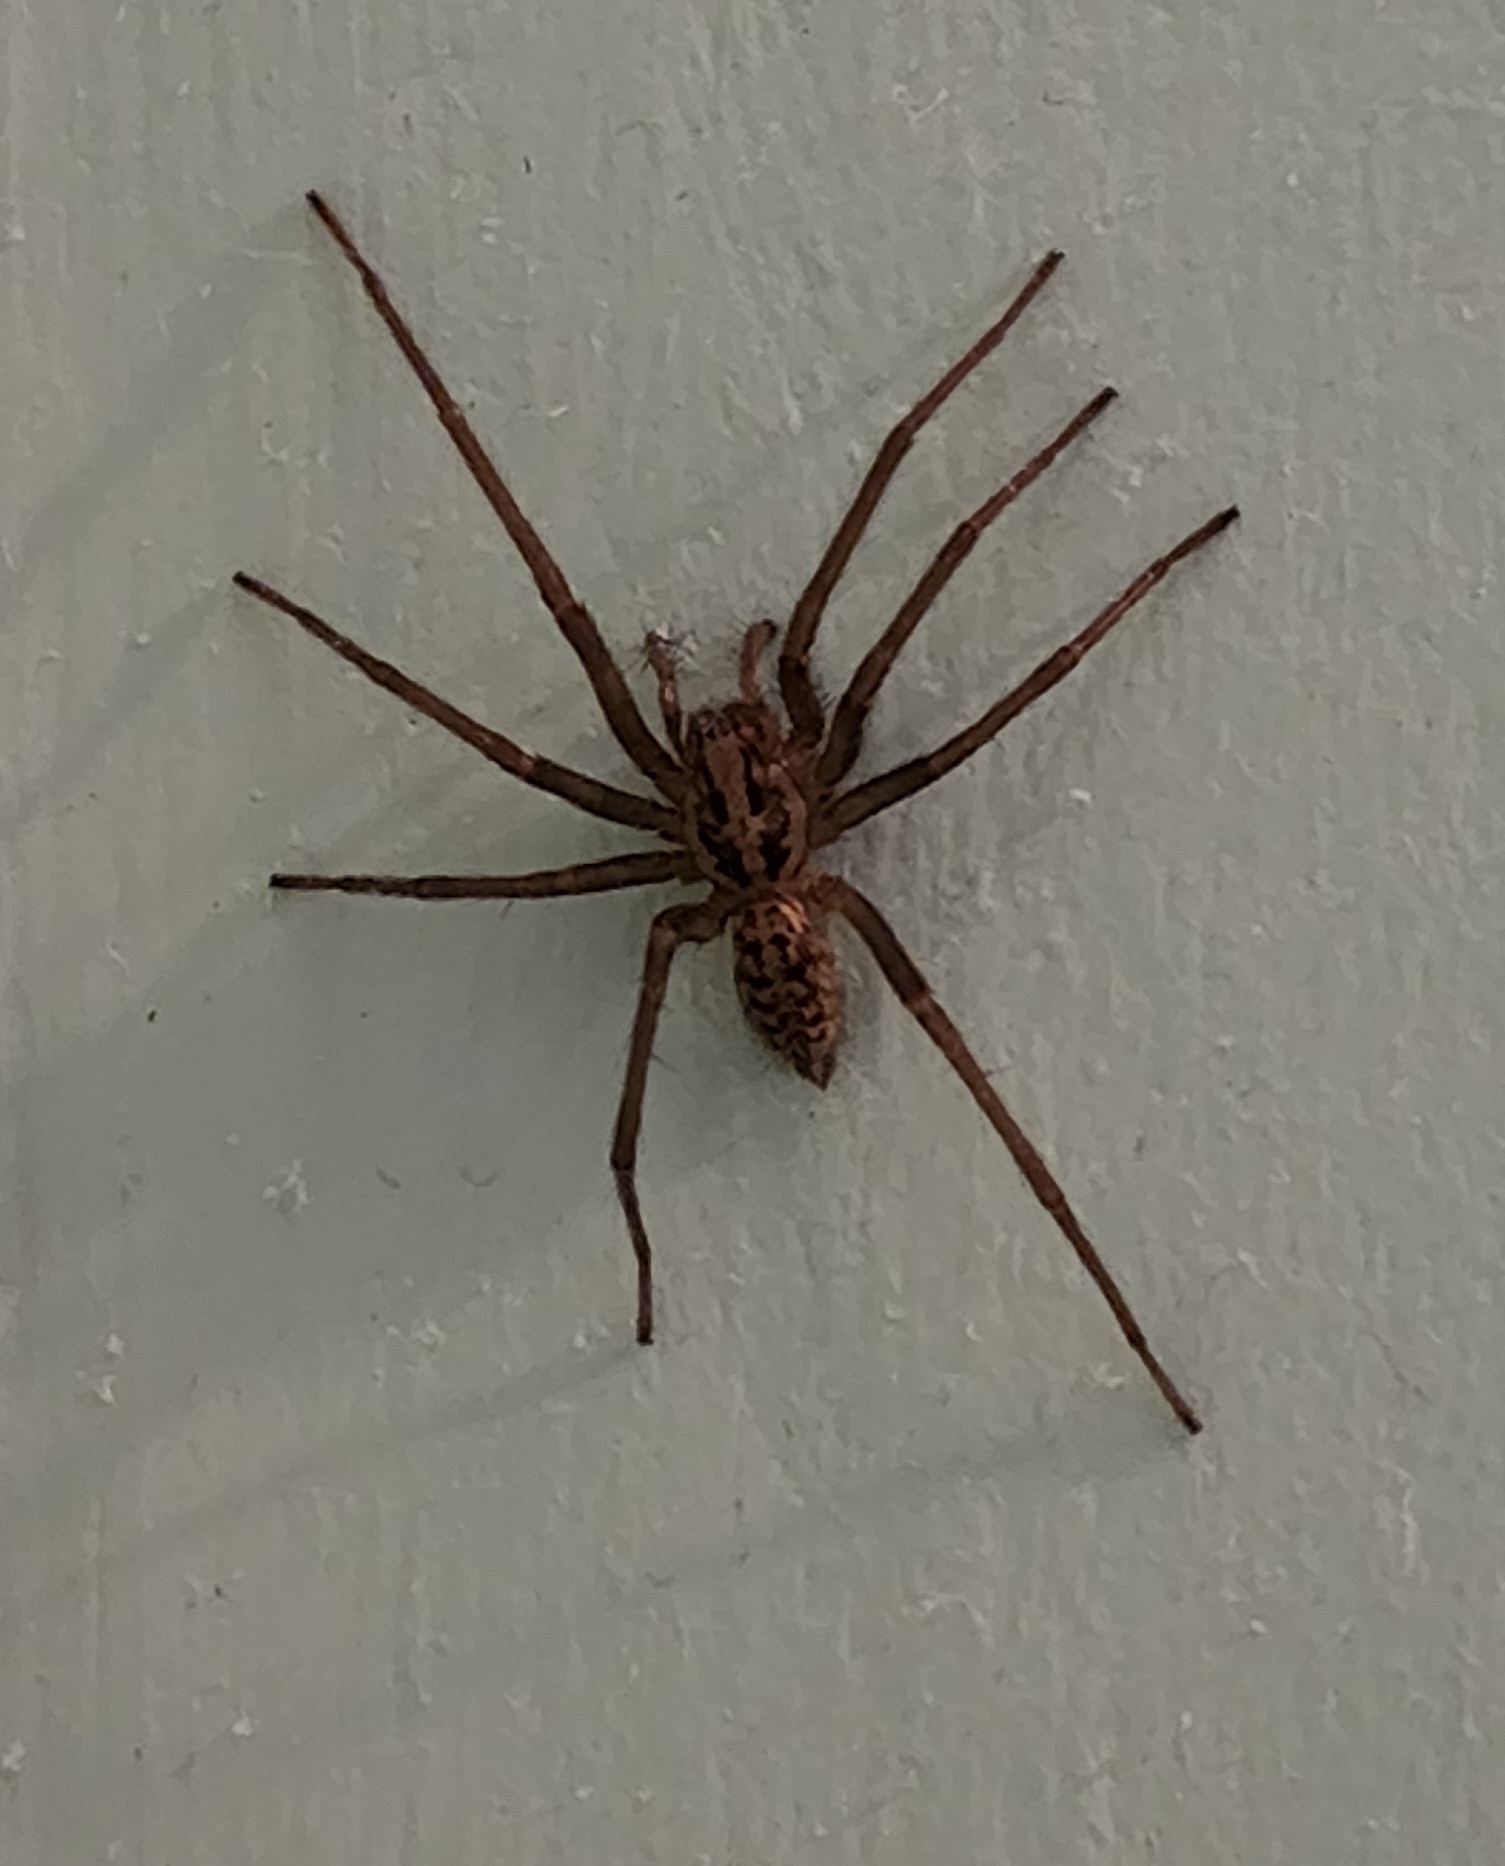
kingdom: Animalia
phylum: Arthropoda
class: Arachnida
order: Araneae
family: Agelenidae
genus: Eratigena
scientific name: Eratigena duellica
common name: Giant house spider
